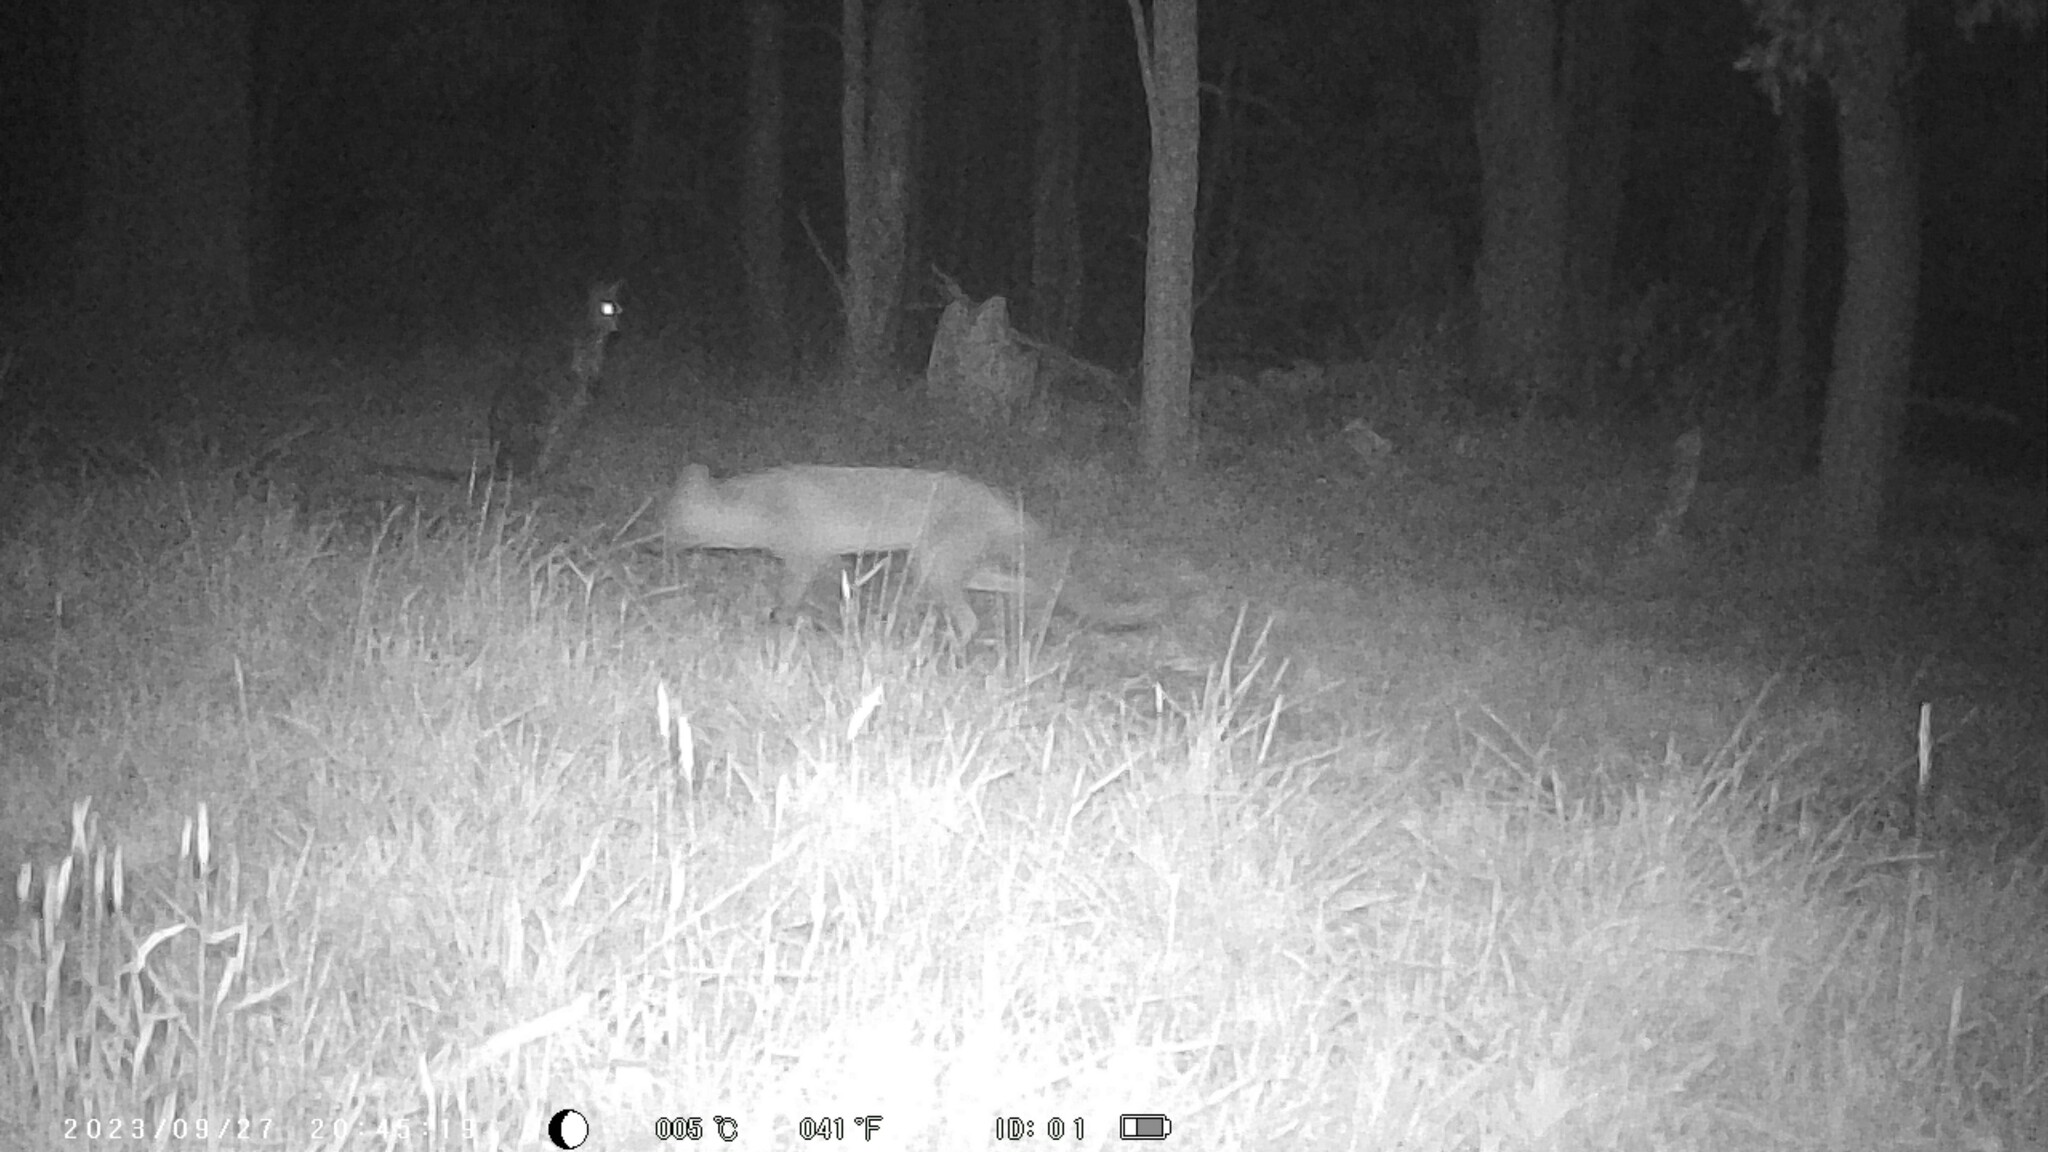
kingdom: Animalia
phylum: Chordata
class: Mammalia
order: Carnivora
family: Canidae
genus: Vulpes
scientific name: Vulpes vulpes
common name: Red fox
